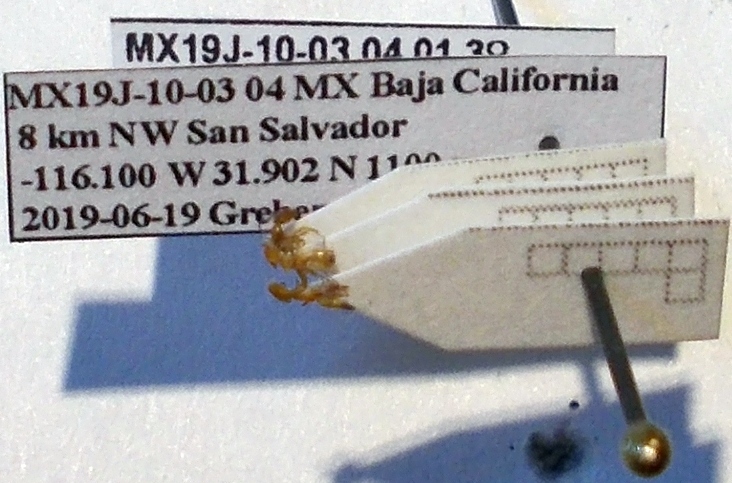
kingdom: Animalia
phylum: Arthropoda
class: Insecta
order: Hymenoptera
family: Formicidae
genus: Forelius
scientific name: Forelius mccooki
